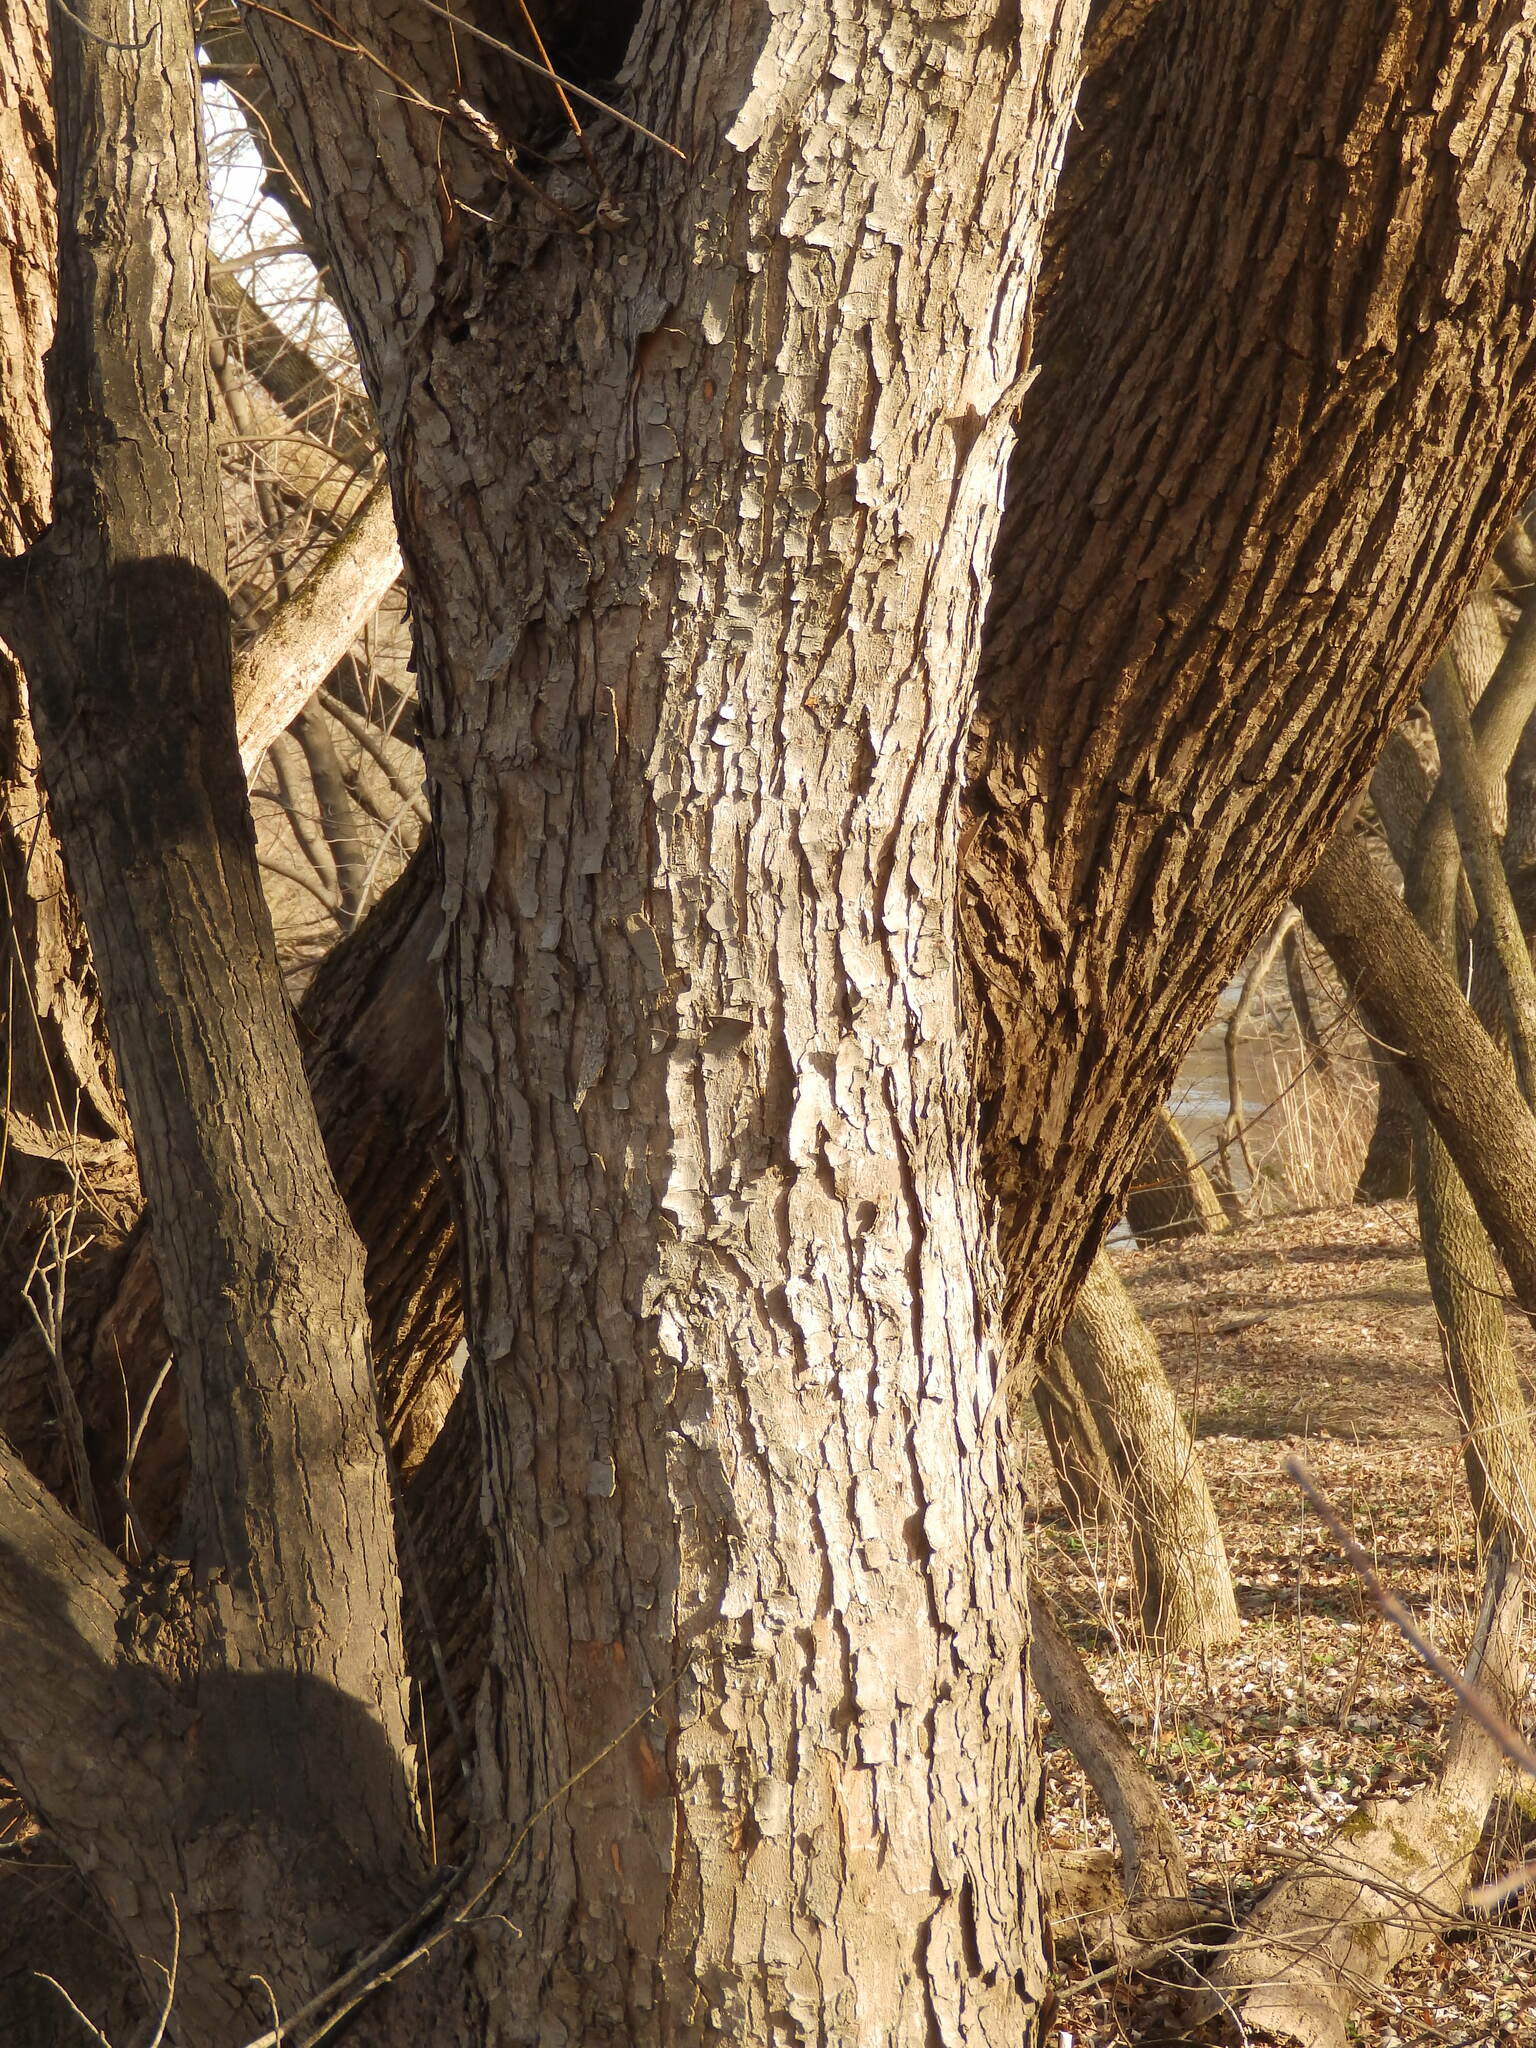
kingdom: Plantae
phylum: Tracheophyta
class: Magnoliopsida
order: Sapindales
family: Sapindaceae
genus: Acer
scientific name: Acer saccharinum
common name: Silver maple
